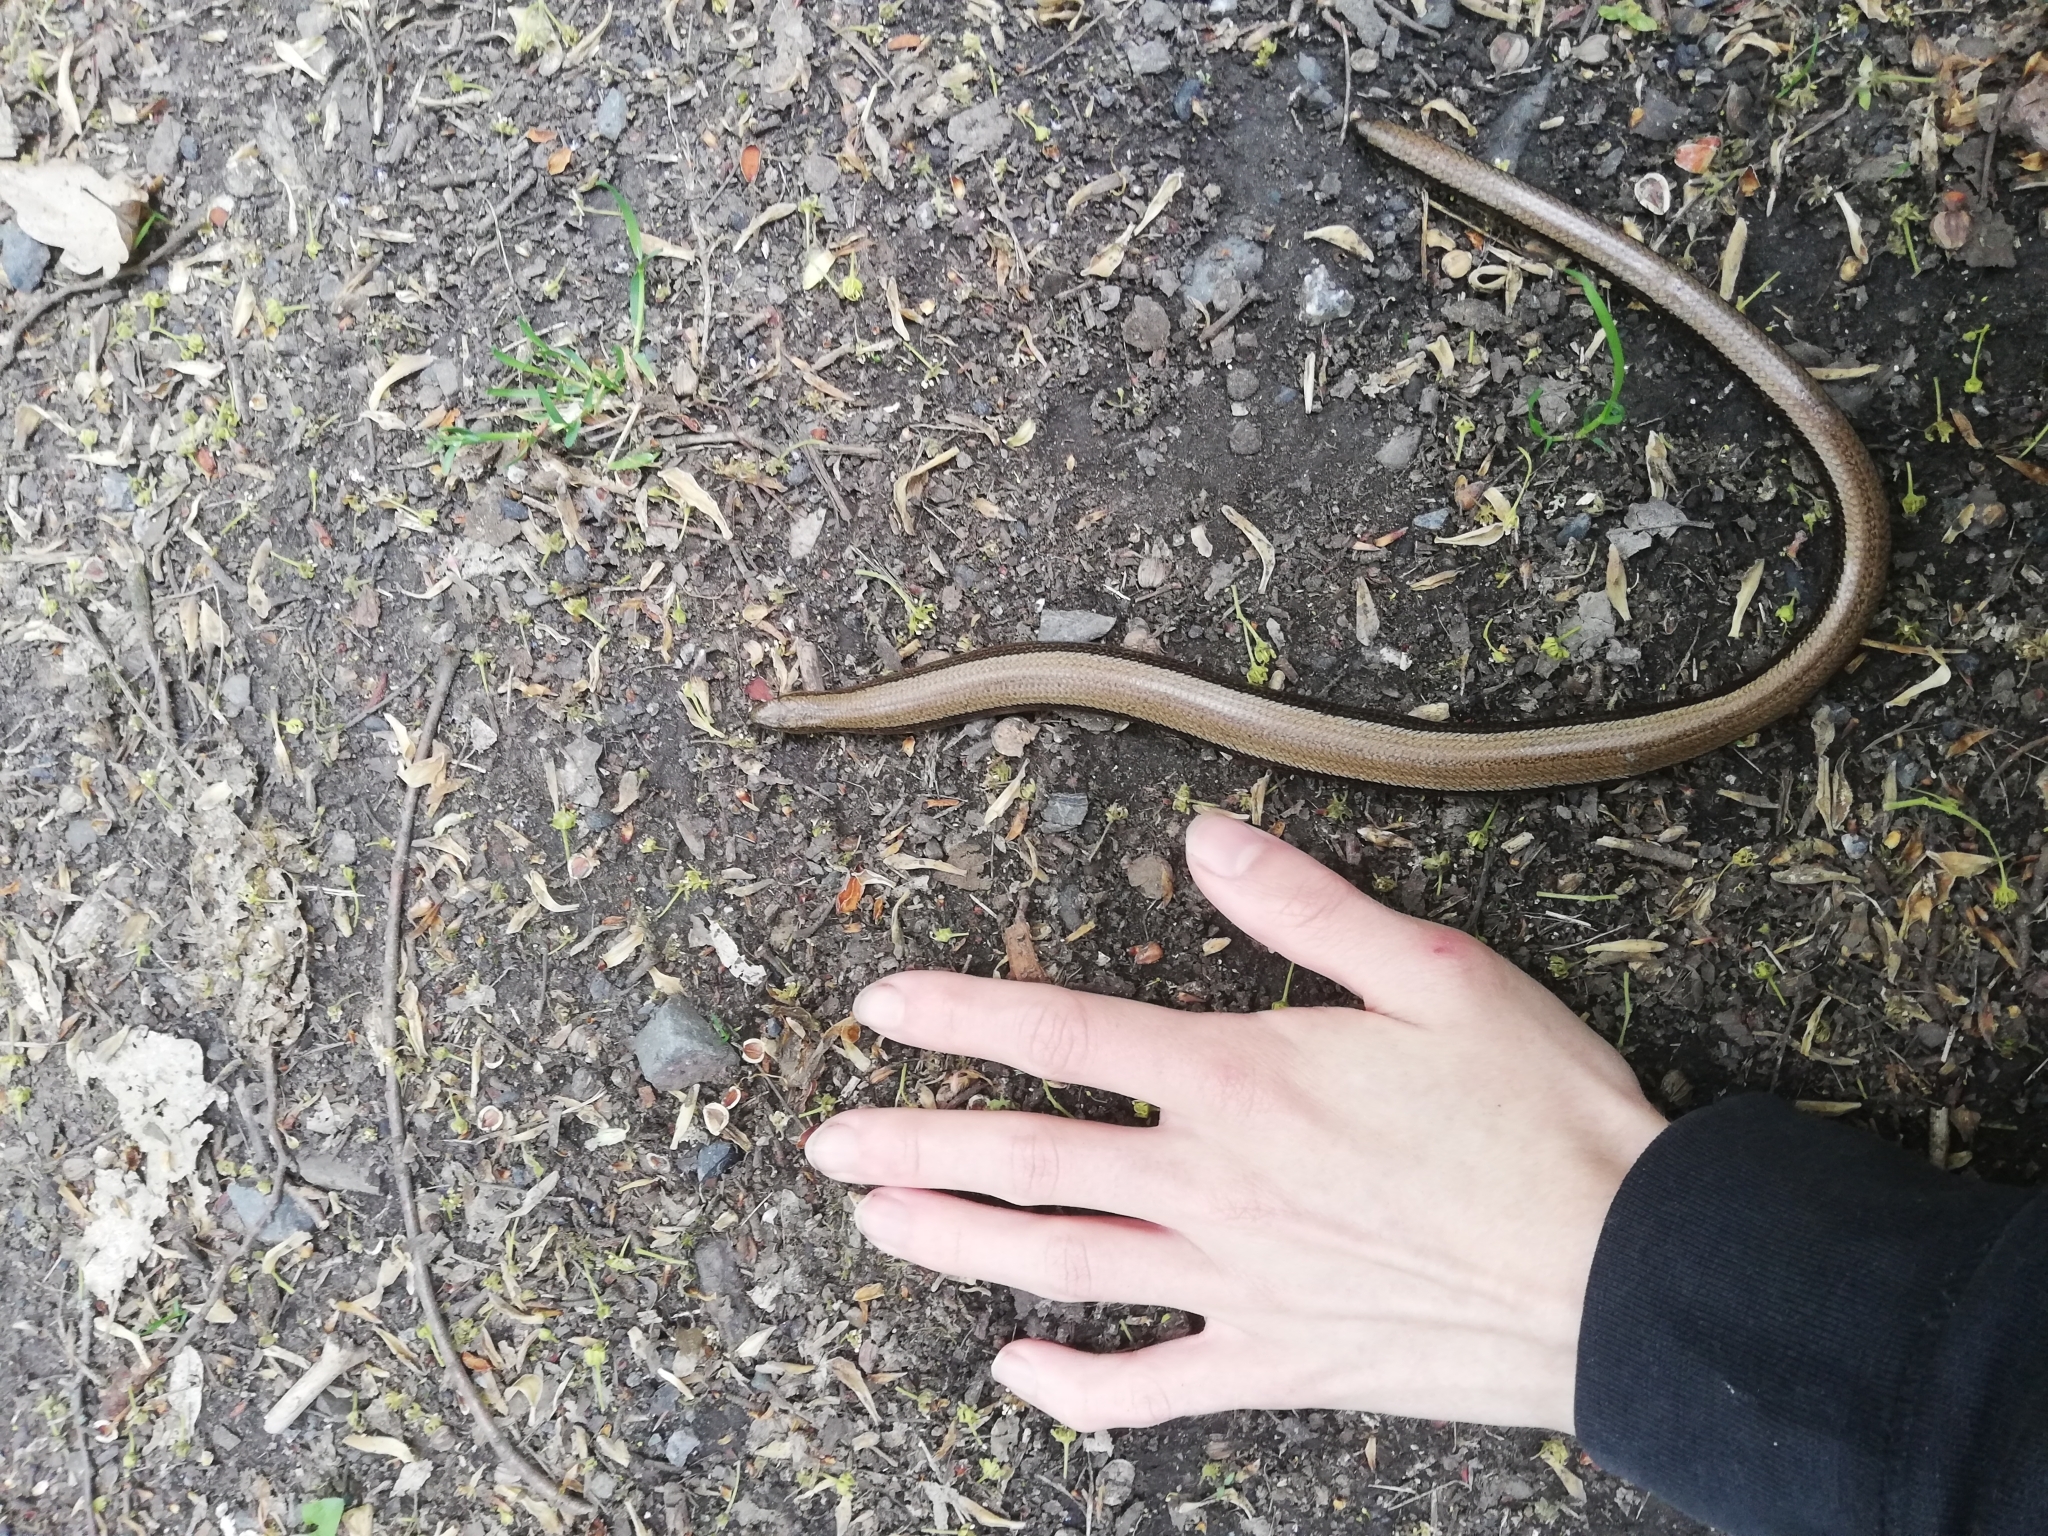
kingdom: Animalia
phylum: Chordata
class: Squamata
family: Anguidae
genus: Anguis
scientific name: Anguis fragilis
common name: Slow worm
